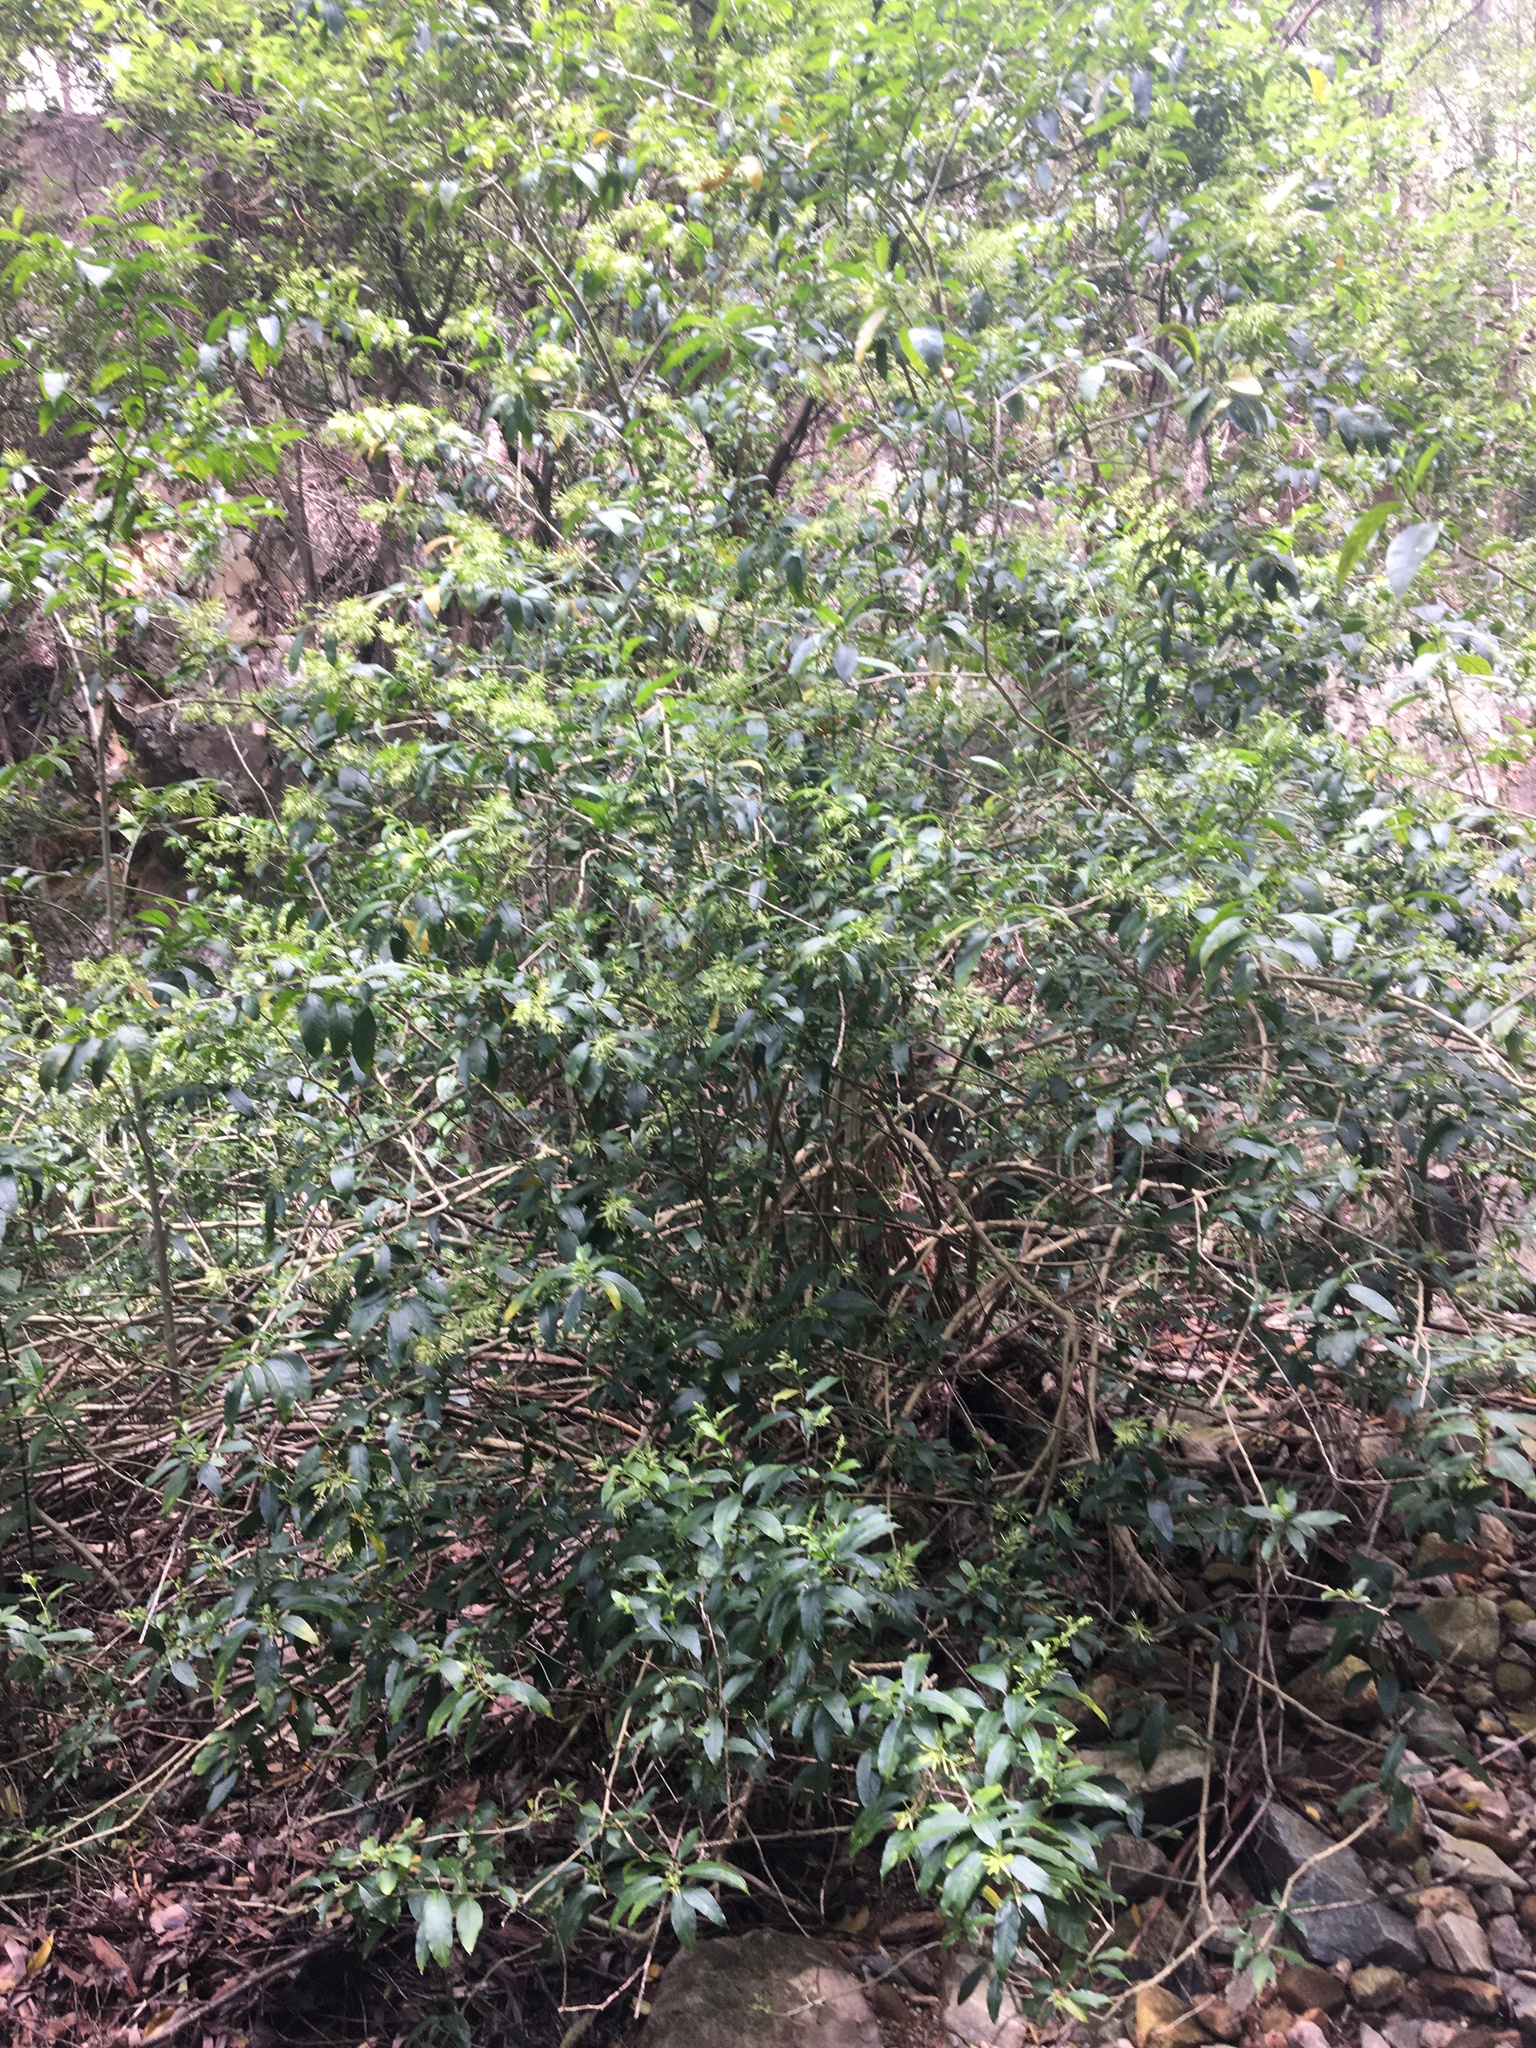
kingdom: Plantae
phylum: Tracheophyta
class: Magnoliopsida
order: Solanales
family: Solanaceae
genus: Cestrum
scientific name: Cestrum nocturnum
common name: Night jessamine
